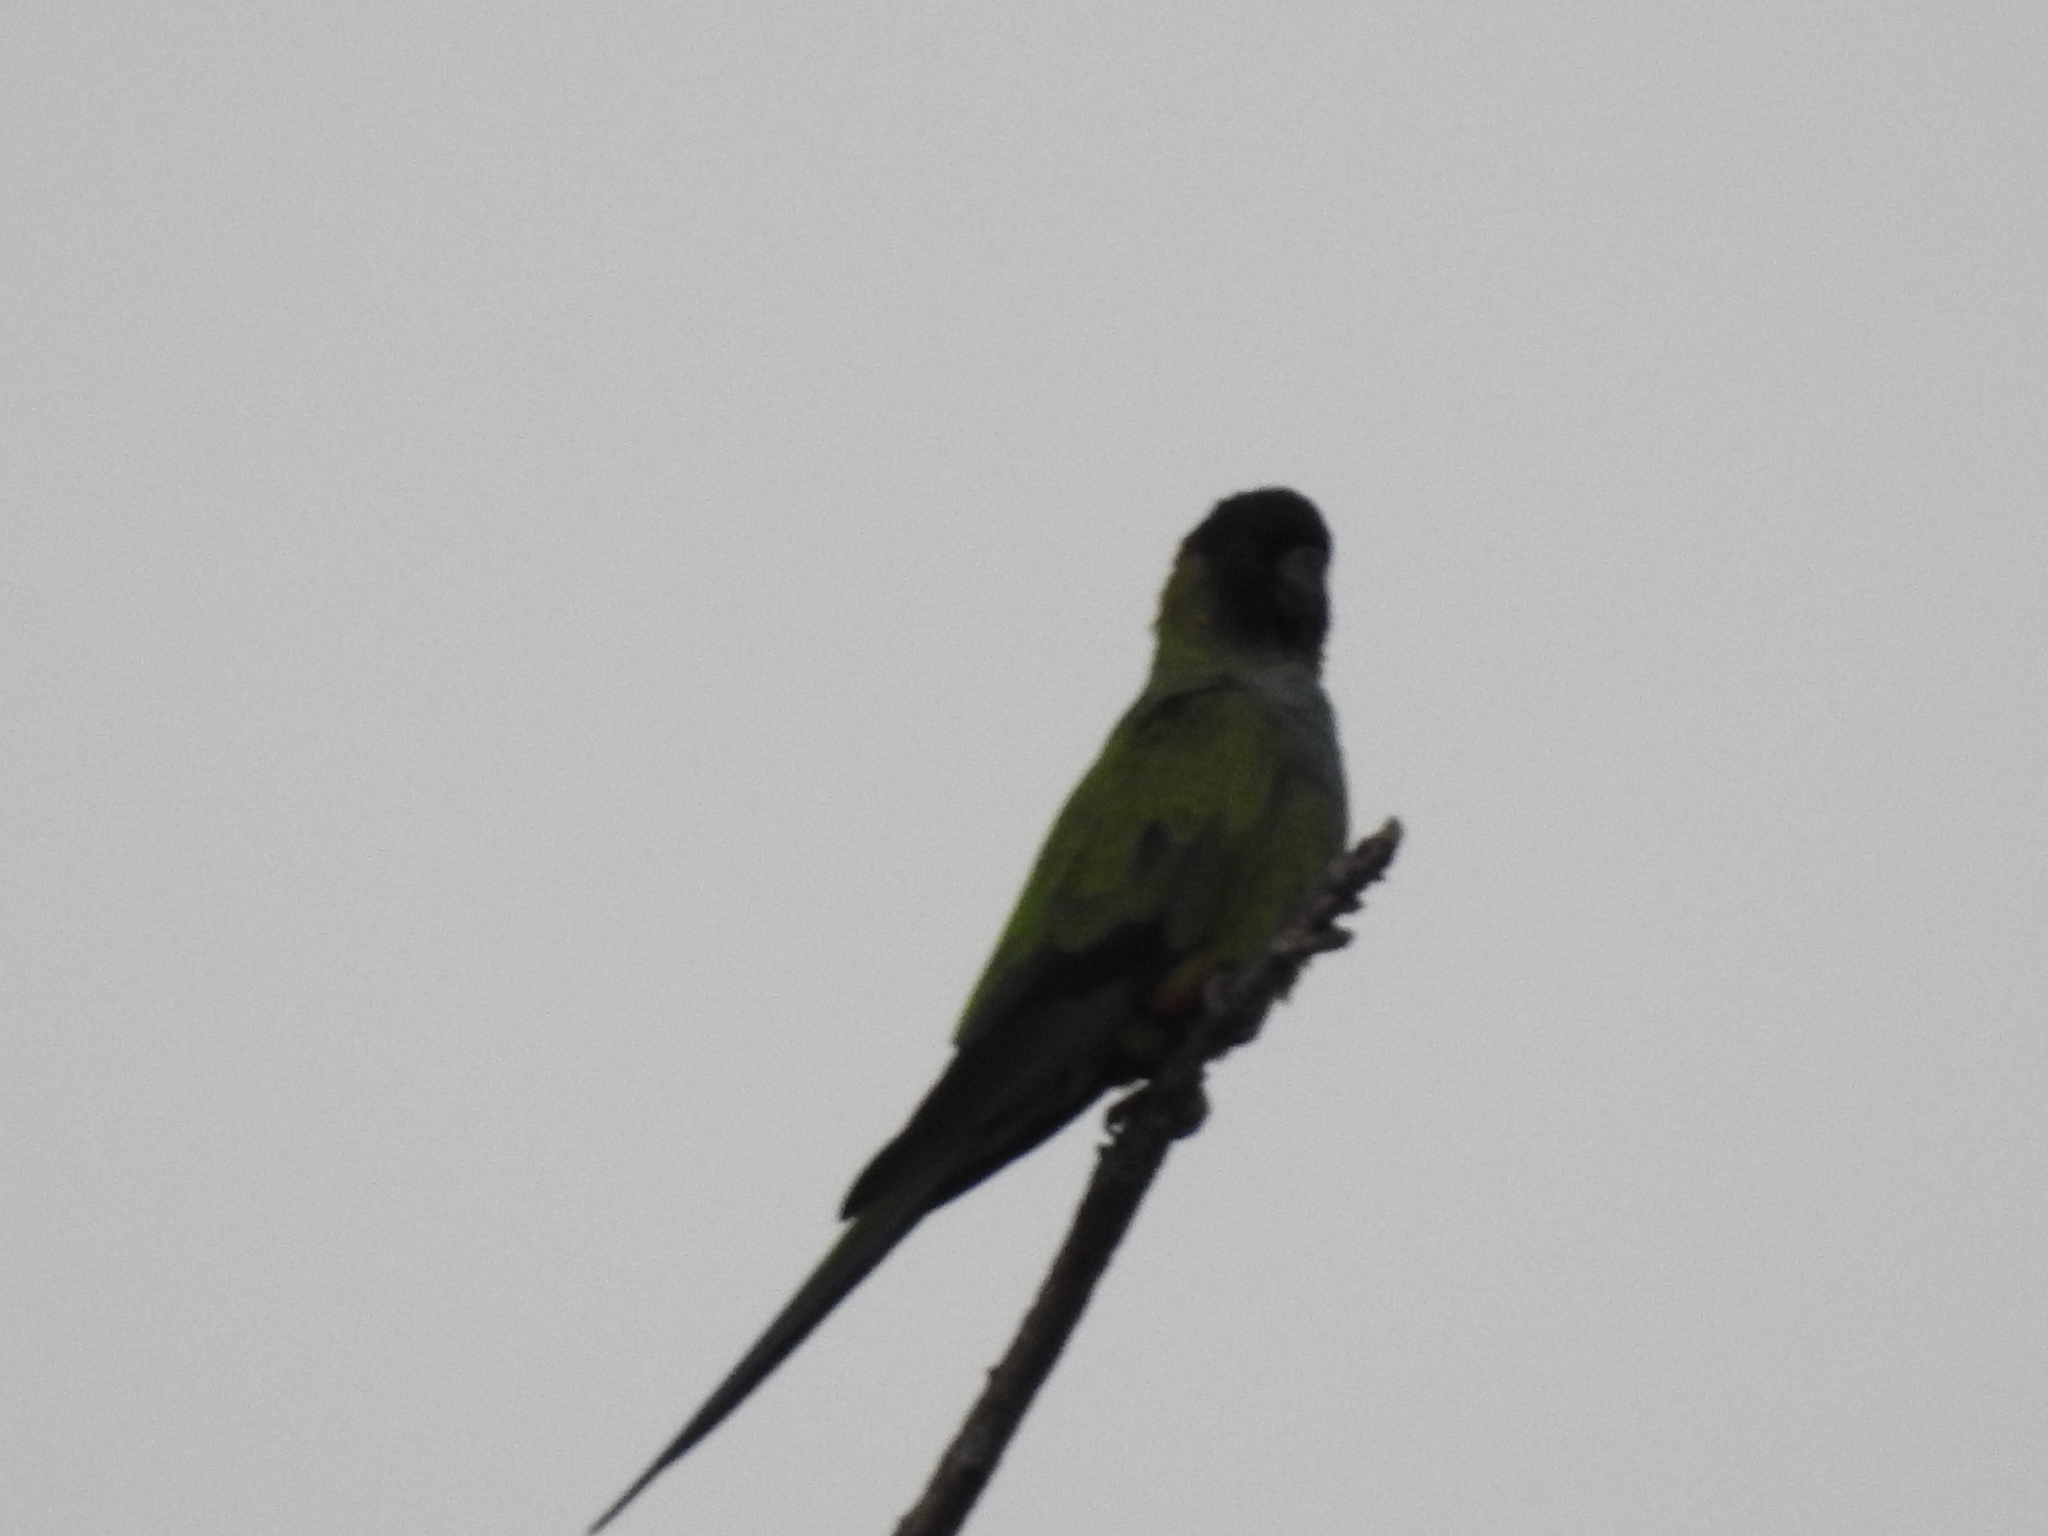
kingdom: Animalia
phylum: Chordata
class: Aves
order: Psittaciformes
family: Psittacidae
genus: Nandayus
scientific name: Nandayus nenday
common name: Nanday parakeet
